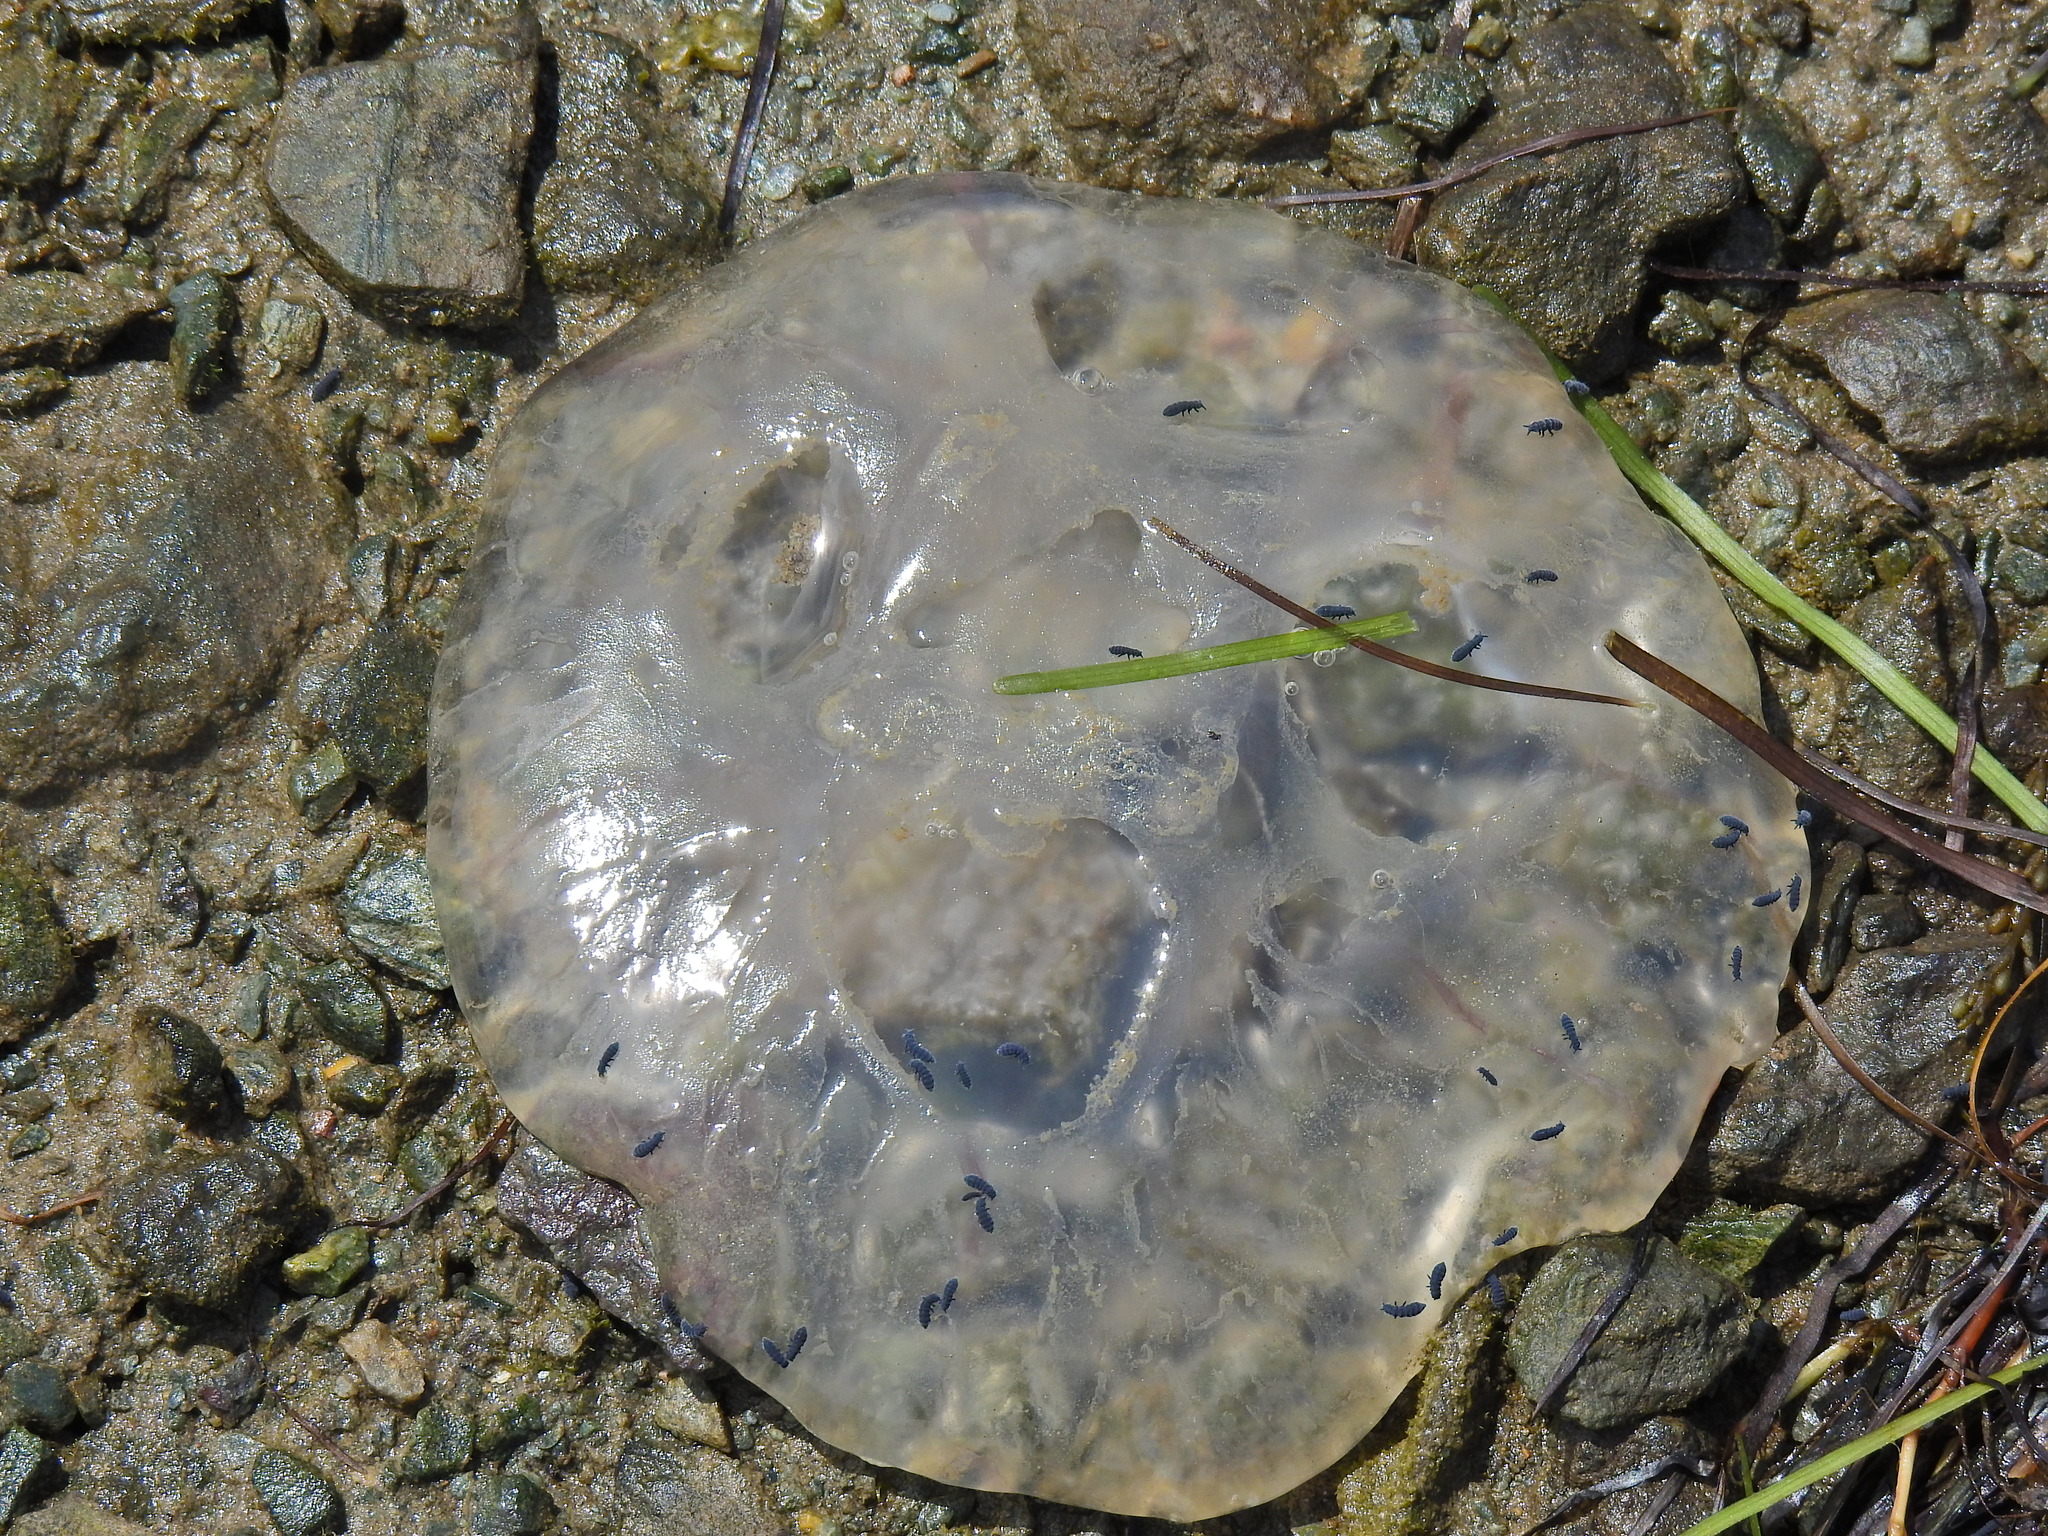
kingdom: Animalia
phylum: Cnidaria
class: Scyphozoa
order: Semaeostomeae
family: Ulmaridae
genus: Aurelia
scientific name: Aurelia aurita
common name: Moon jellyfish
